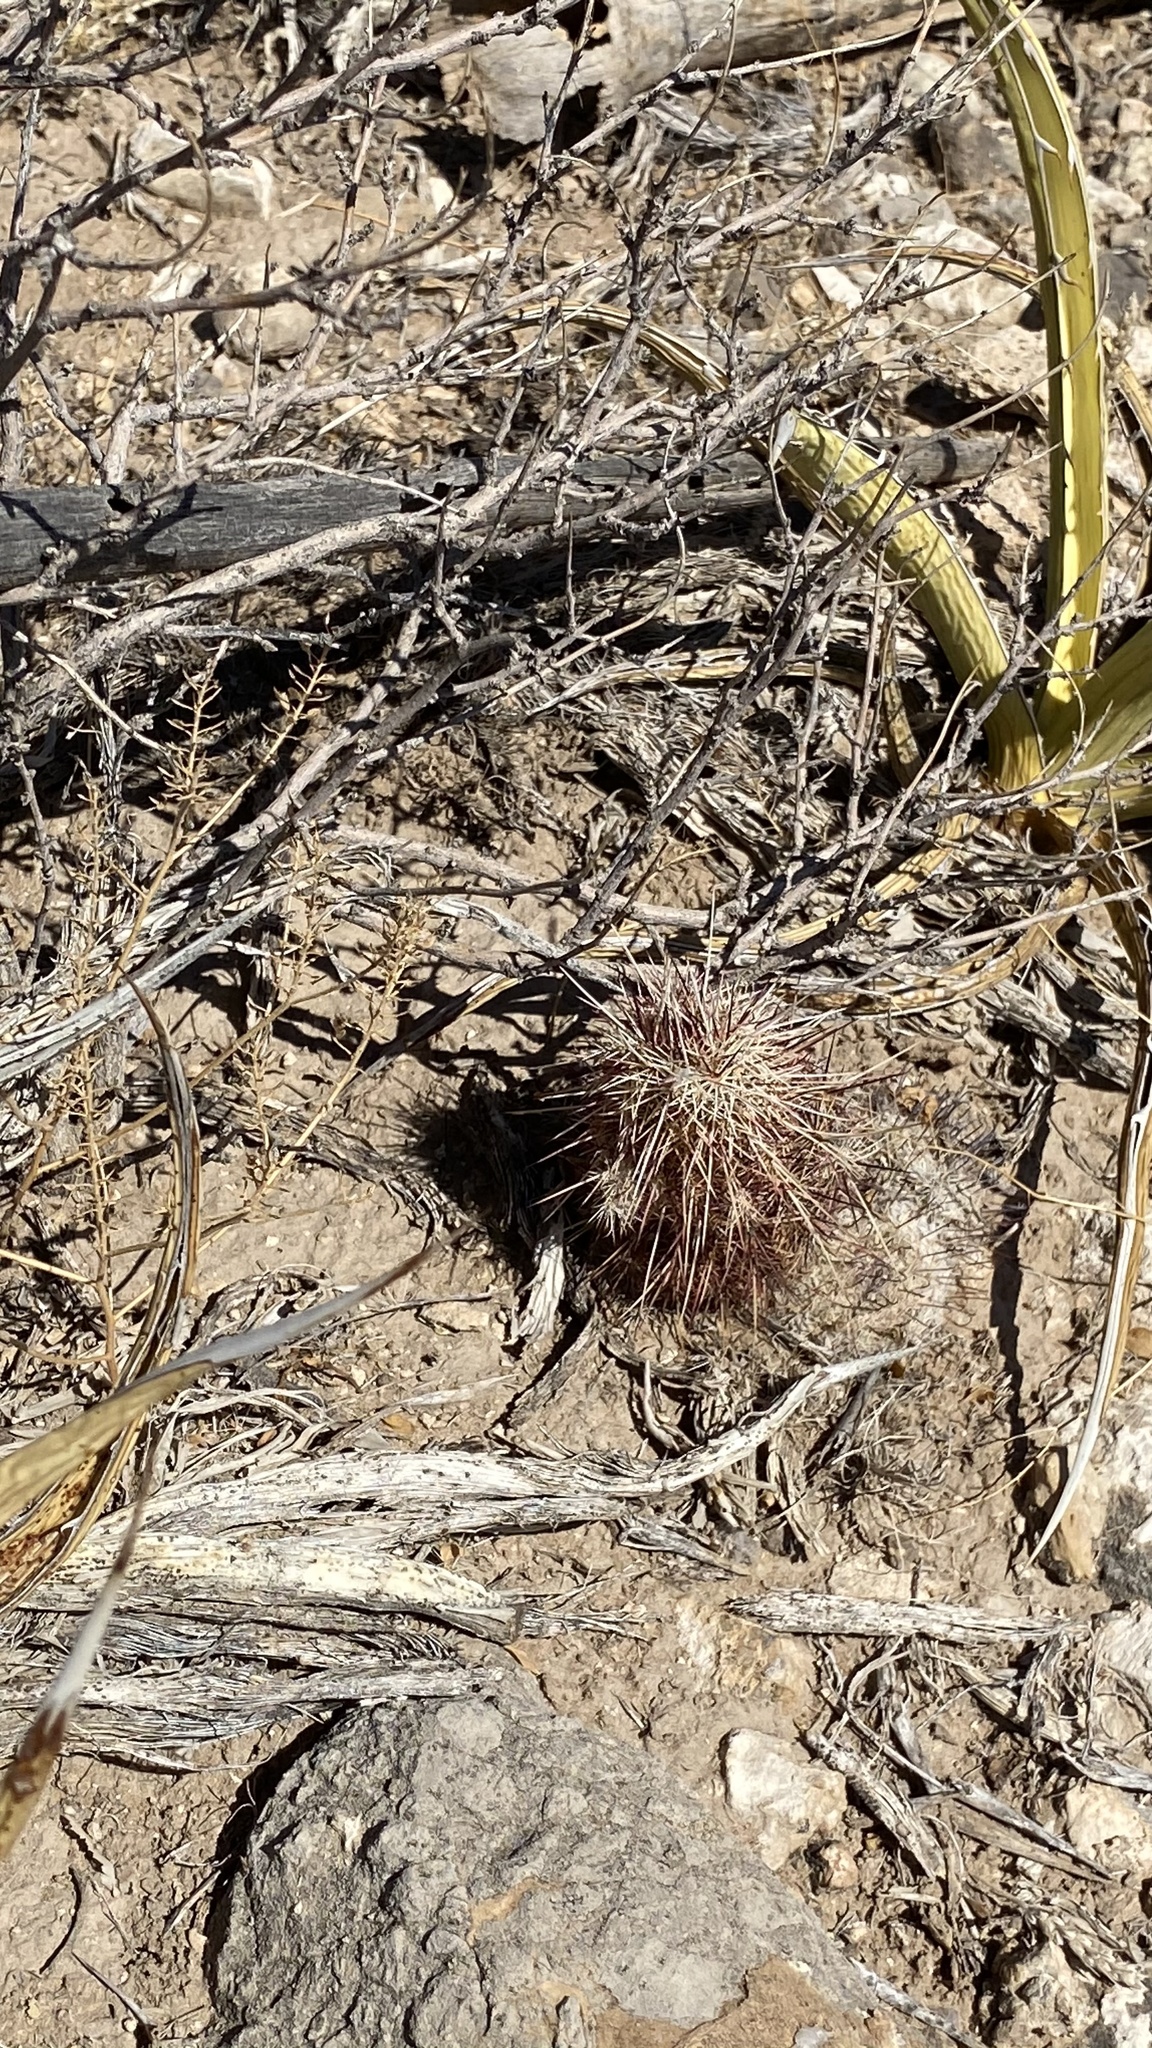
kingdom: Plantae
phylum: Tracheophyta
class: Magnoliopsida
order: Caryophyllales
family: Cactaceae
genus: Echinocereus
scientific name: Echinocereus viridiflorus
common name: Nylon hedgehog cactus
